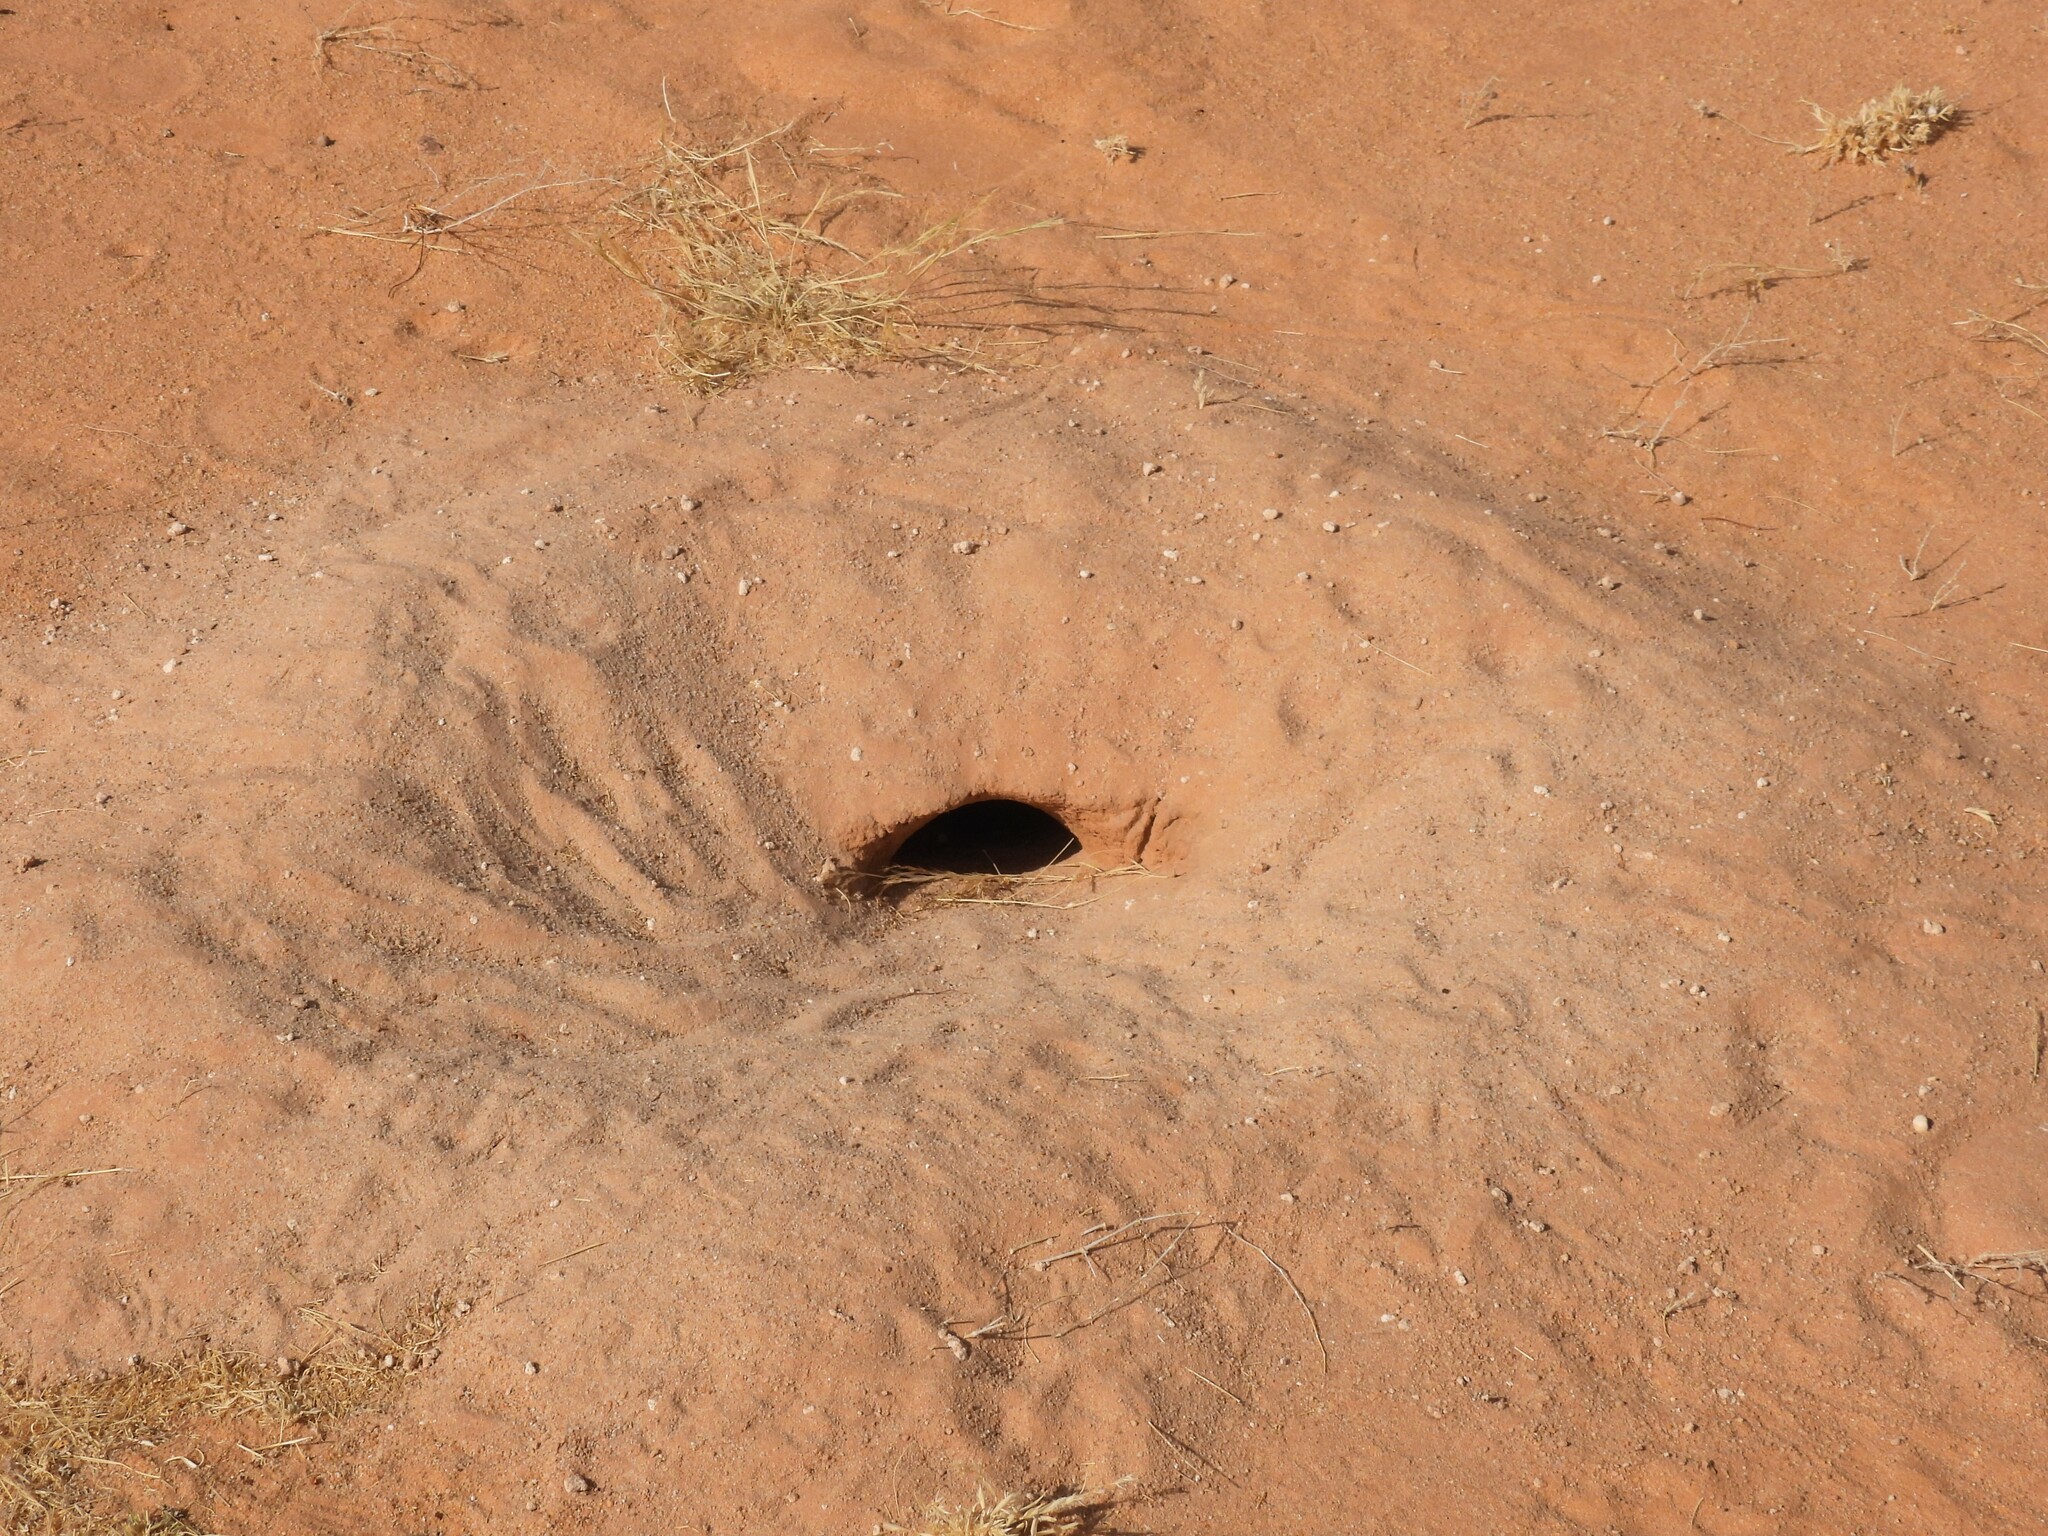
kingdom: Animalia
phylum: Chordata
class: Squamata
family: Agamidae
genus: Uromastyx
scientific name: Uromastyx aegyptia
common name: Egyptian mastigure
